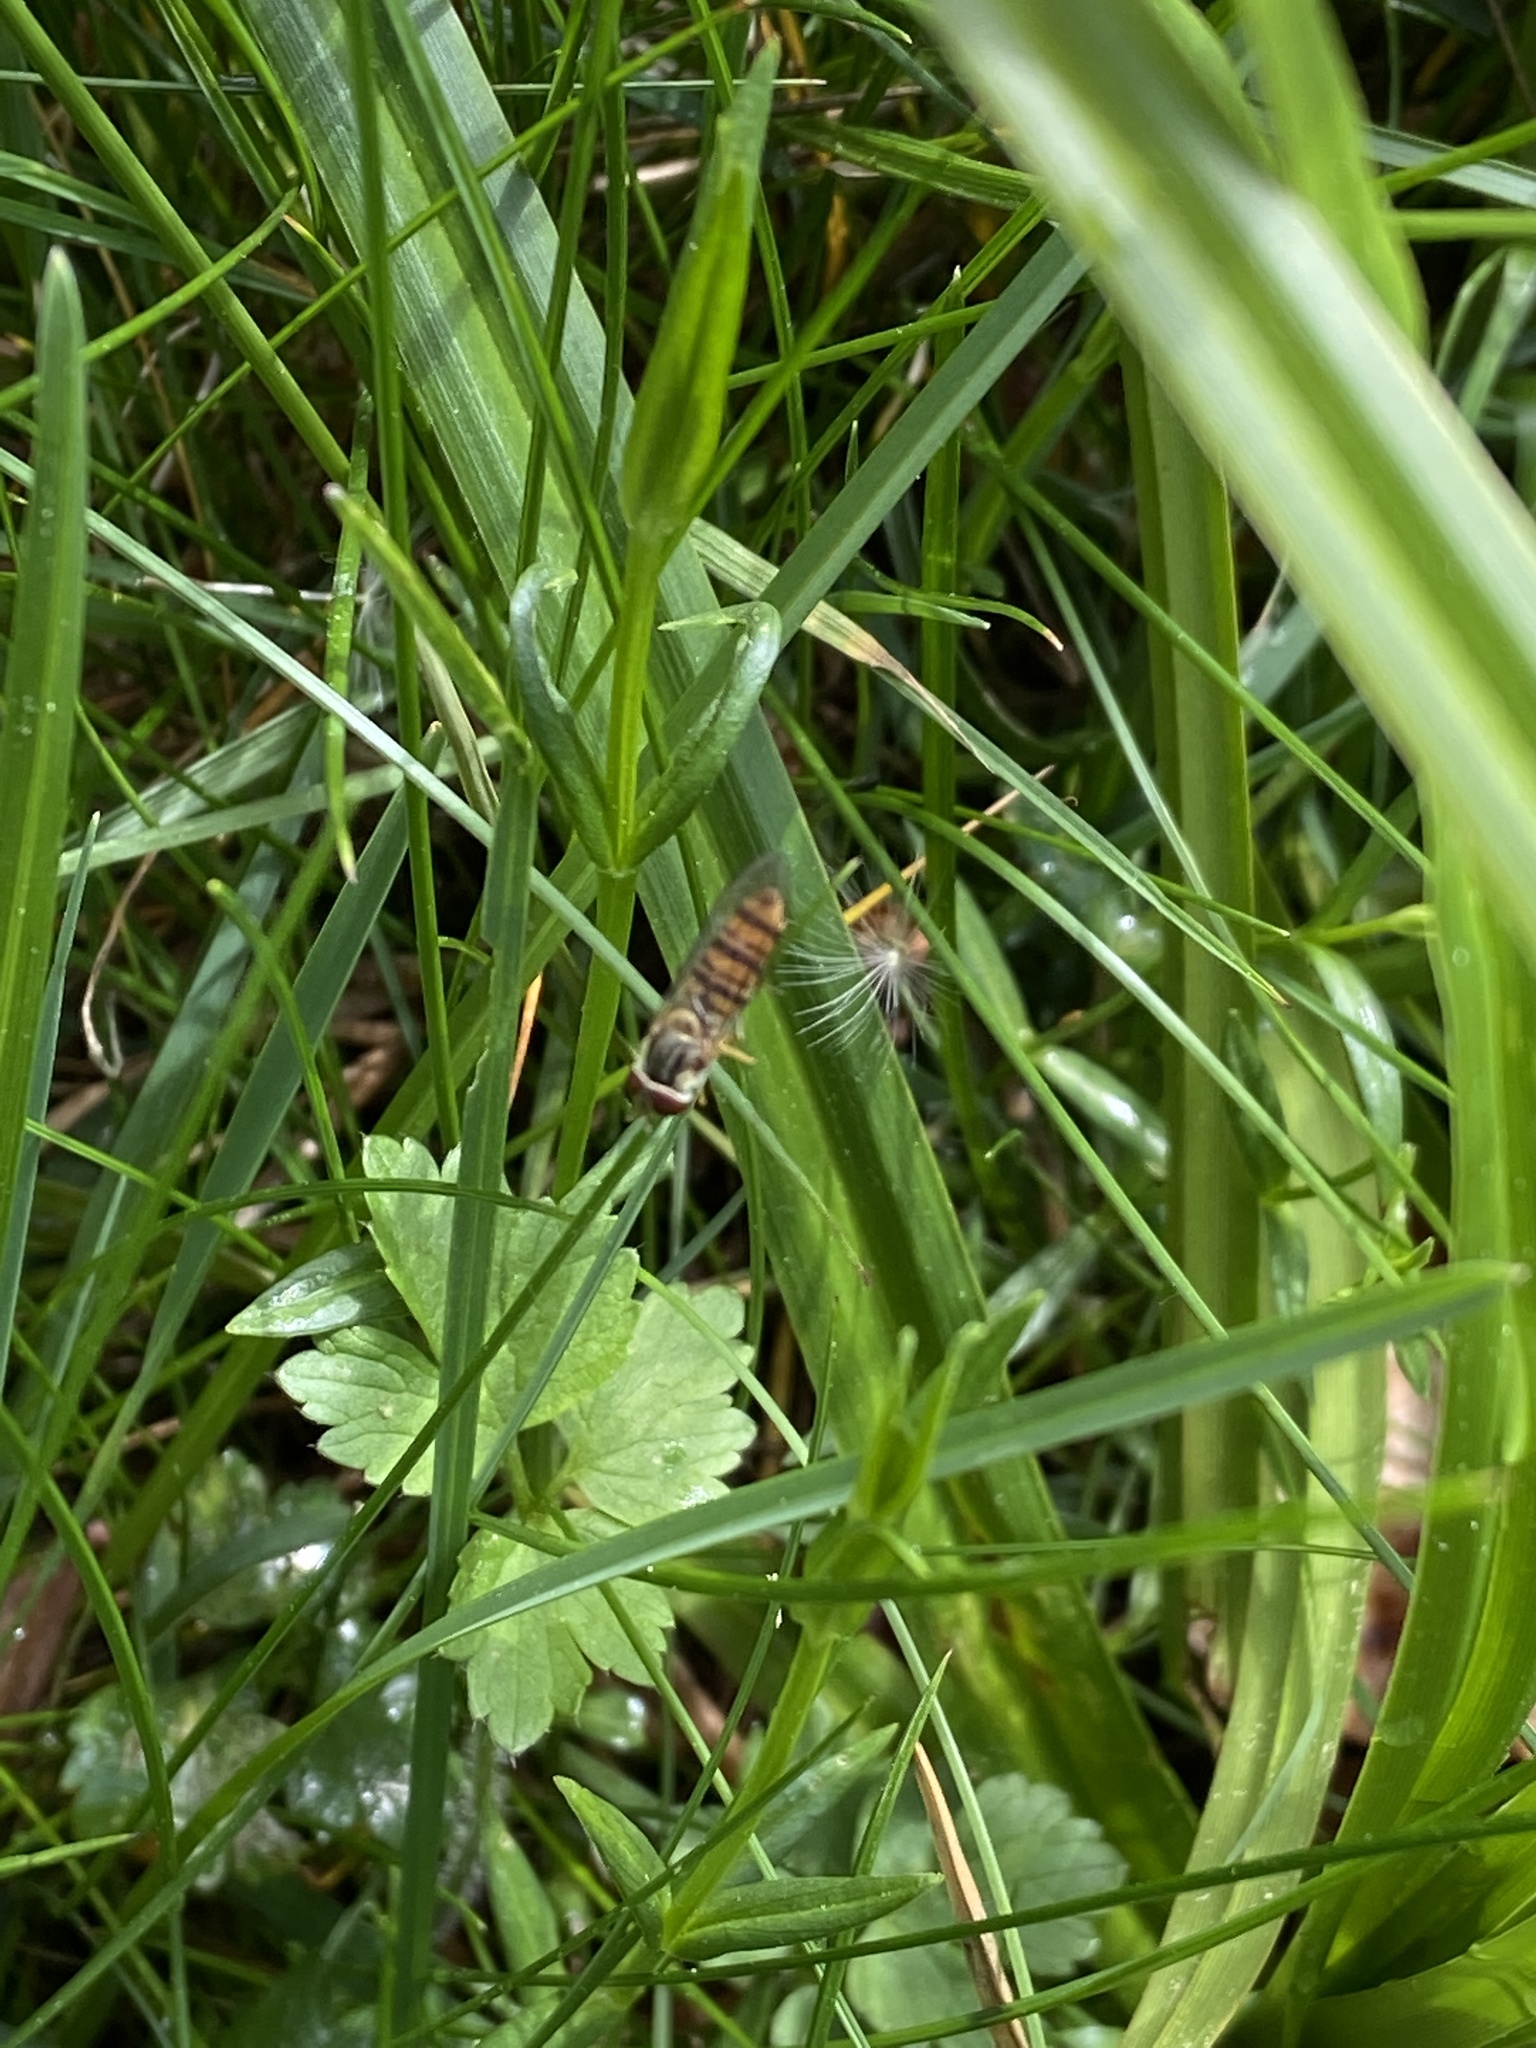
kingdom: Animalia
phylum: Arthropoda
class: Insecta
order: Diptera
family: Syrphidae
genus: Episyrphus
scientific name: Episyrphus balteatus
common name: Marmalade hoverfly
